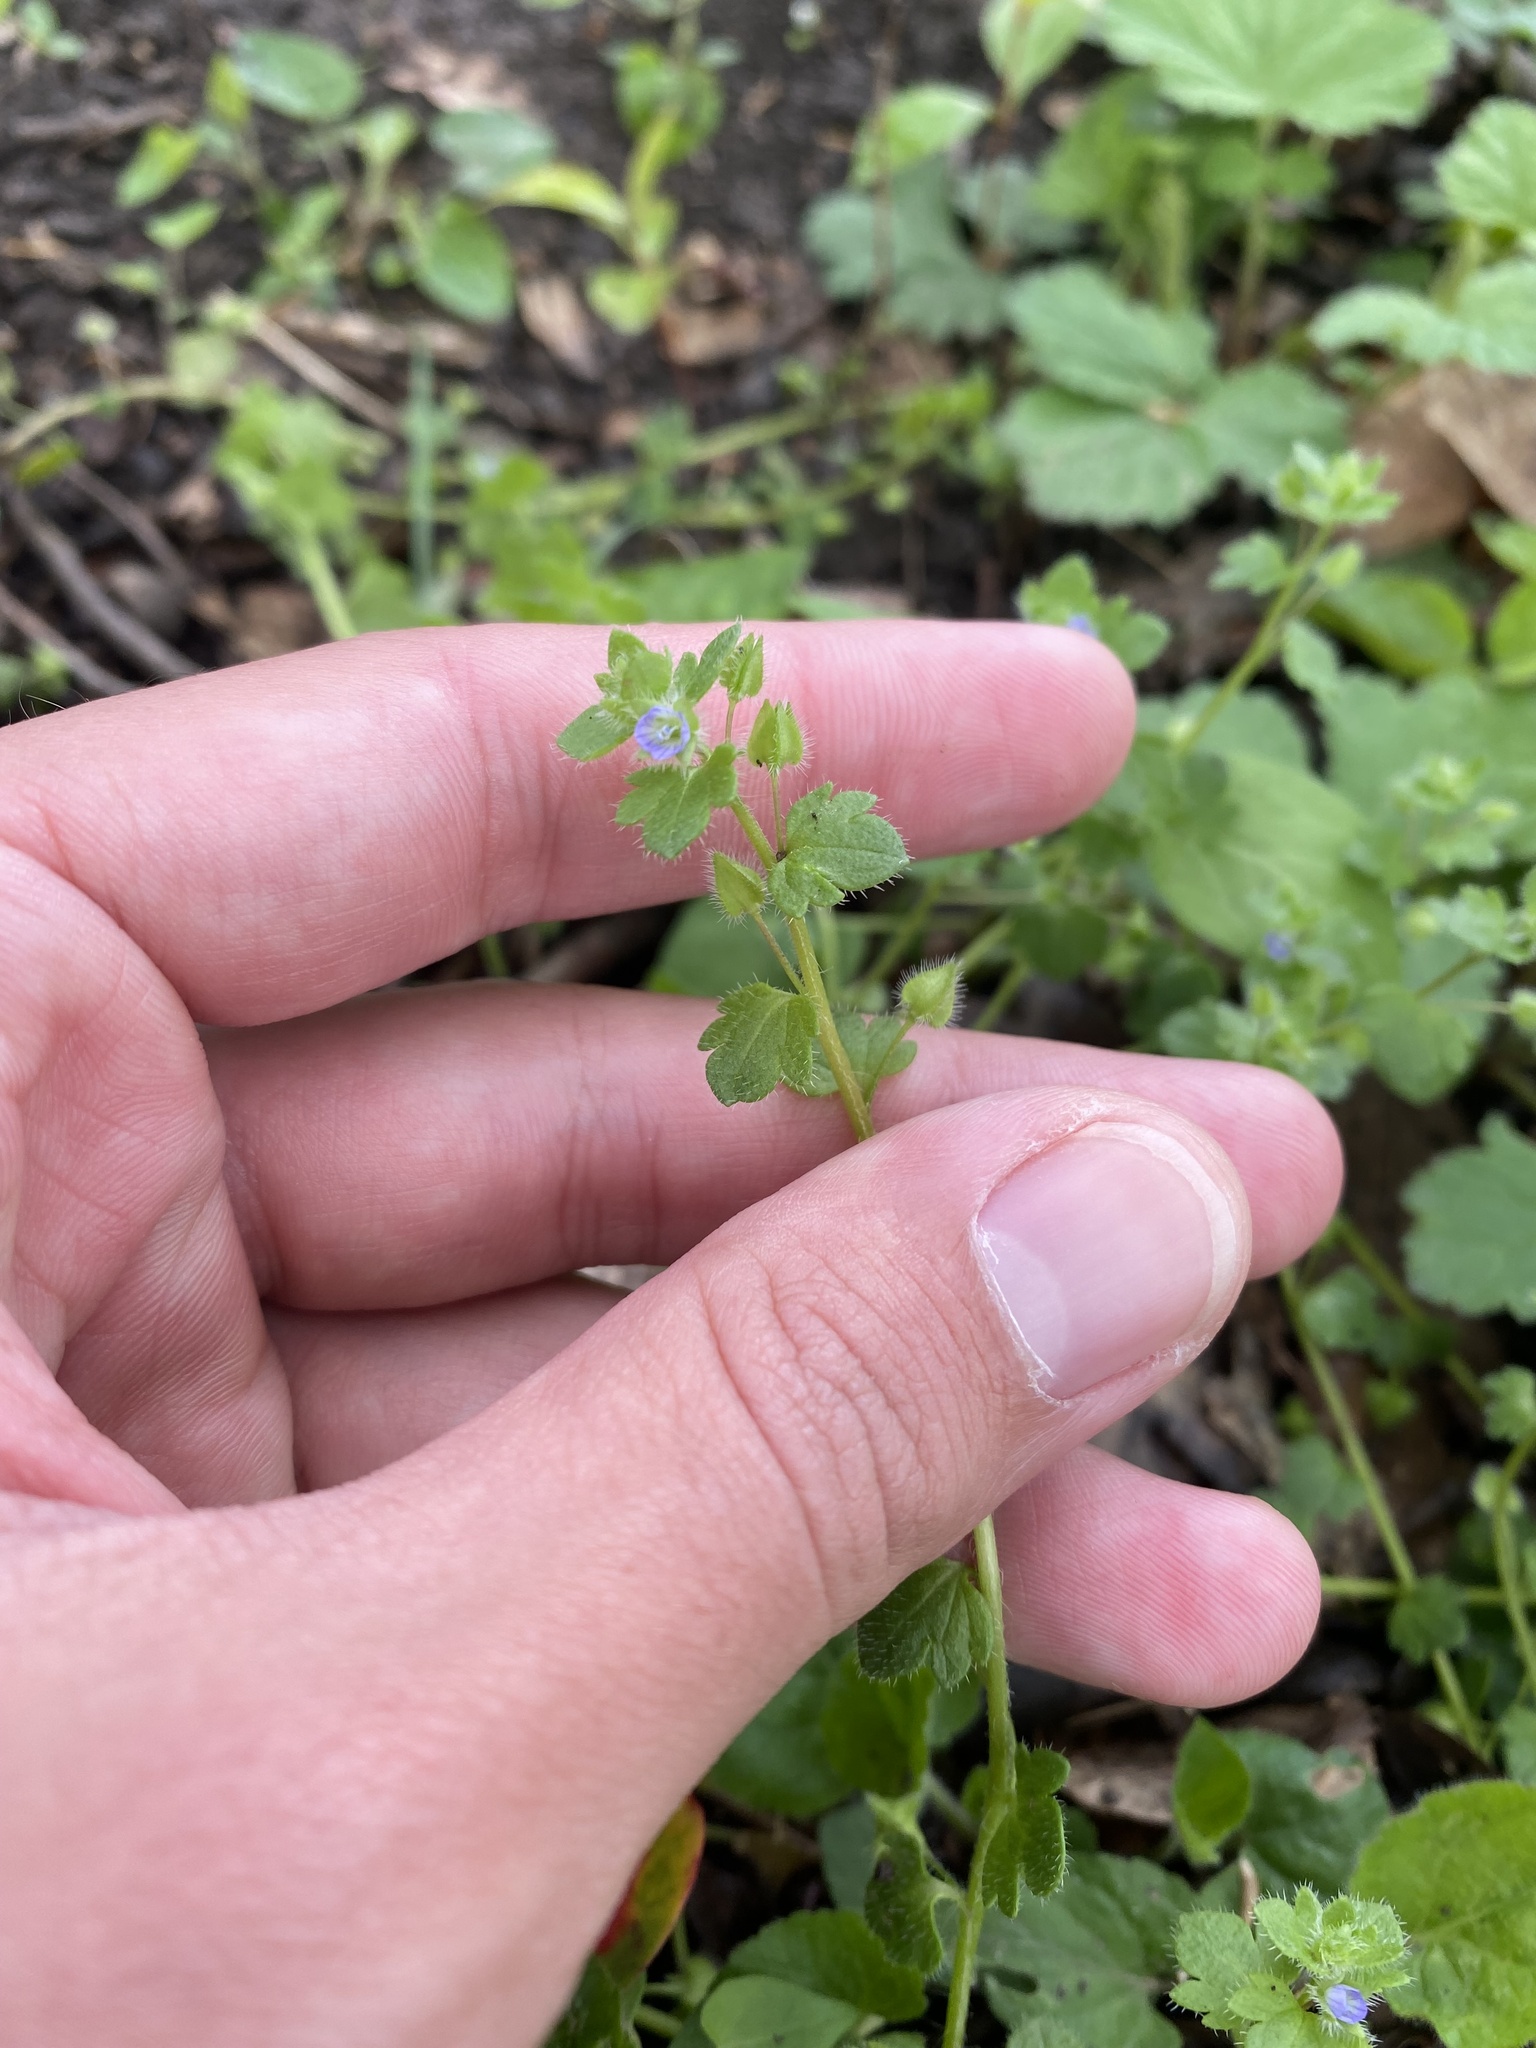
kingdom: Plantae
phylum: Tracheophyta
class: Magnoliopsida
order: Lamiales
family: Plantaginaceae
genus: Veronica
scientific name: Veronica hederifolia
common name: Ivy-leaved speedwell
